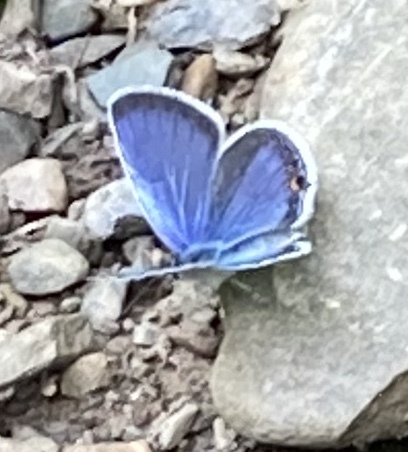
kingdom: Animalia
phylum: Arthropoda
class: Insecta
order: Lepidoptera
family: Lycaenidae
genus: Elkalyce
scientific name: Elkalyce comyntas
